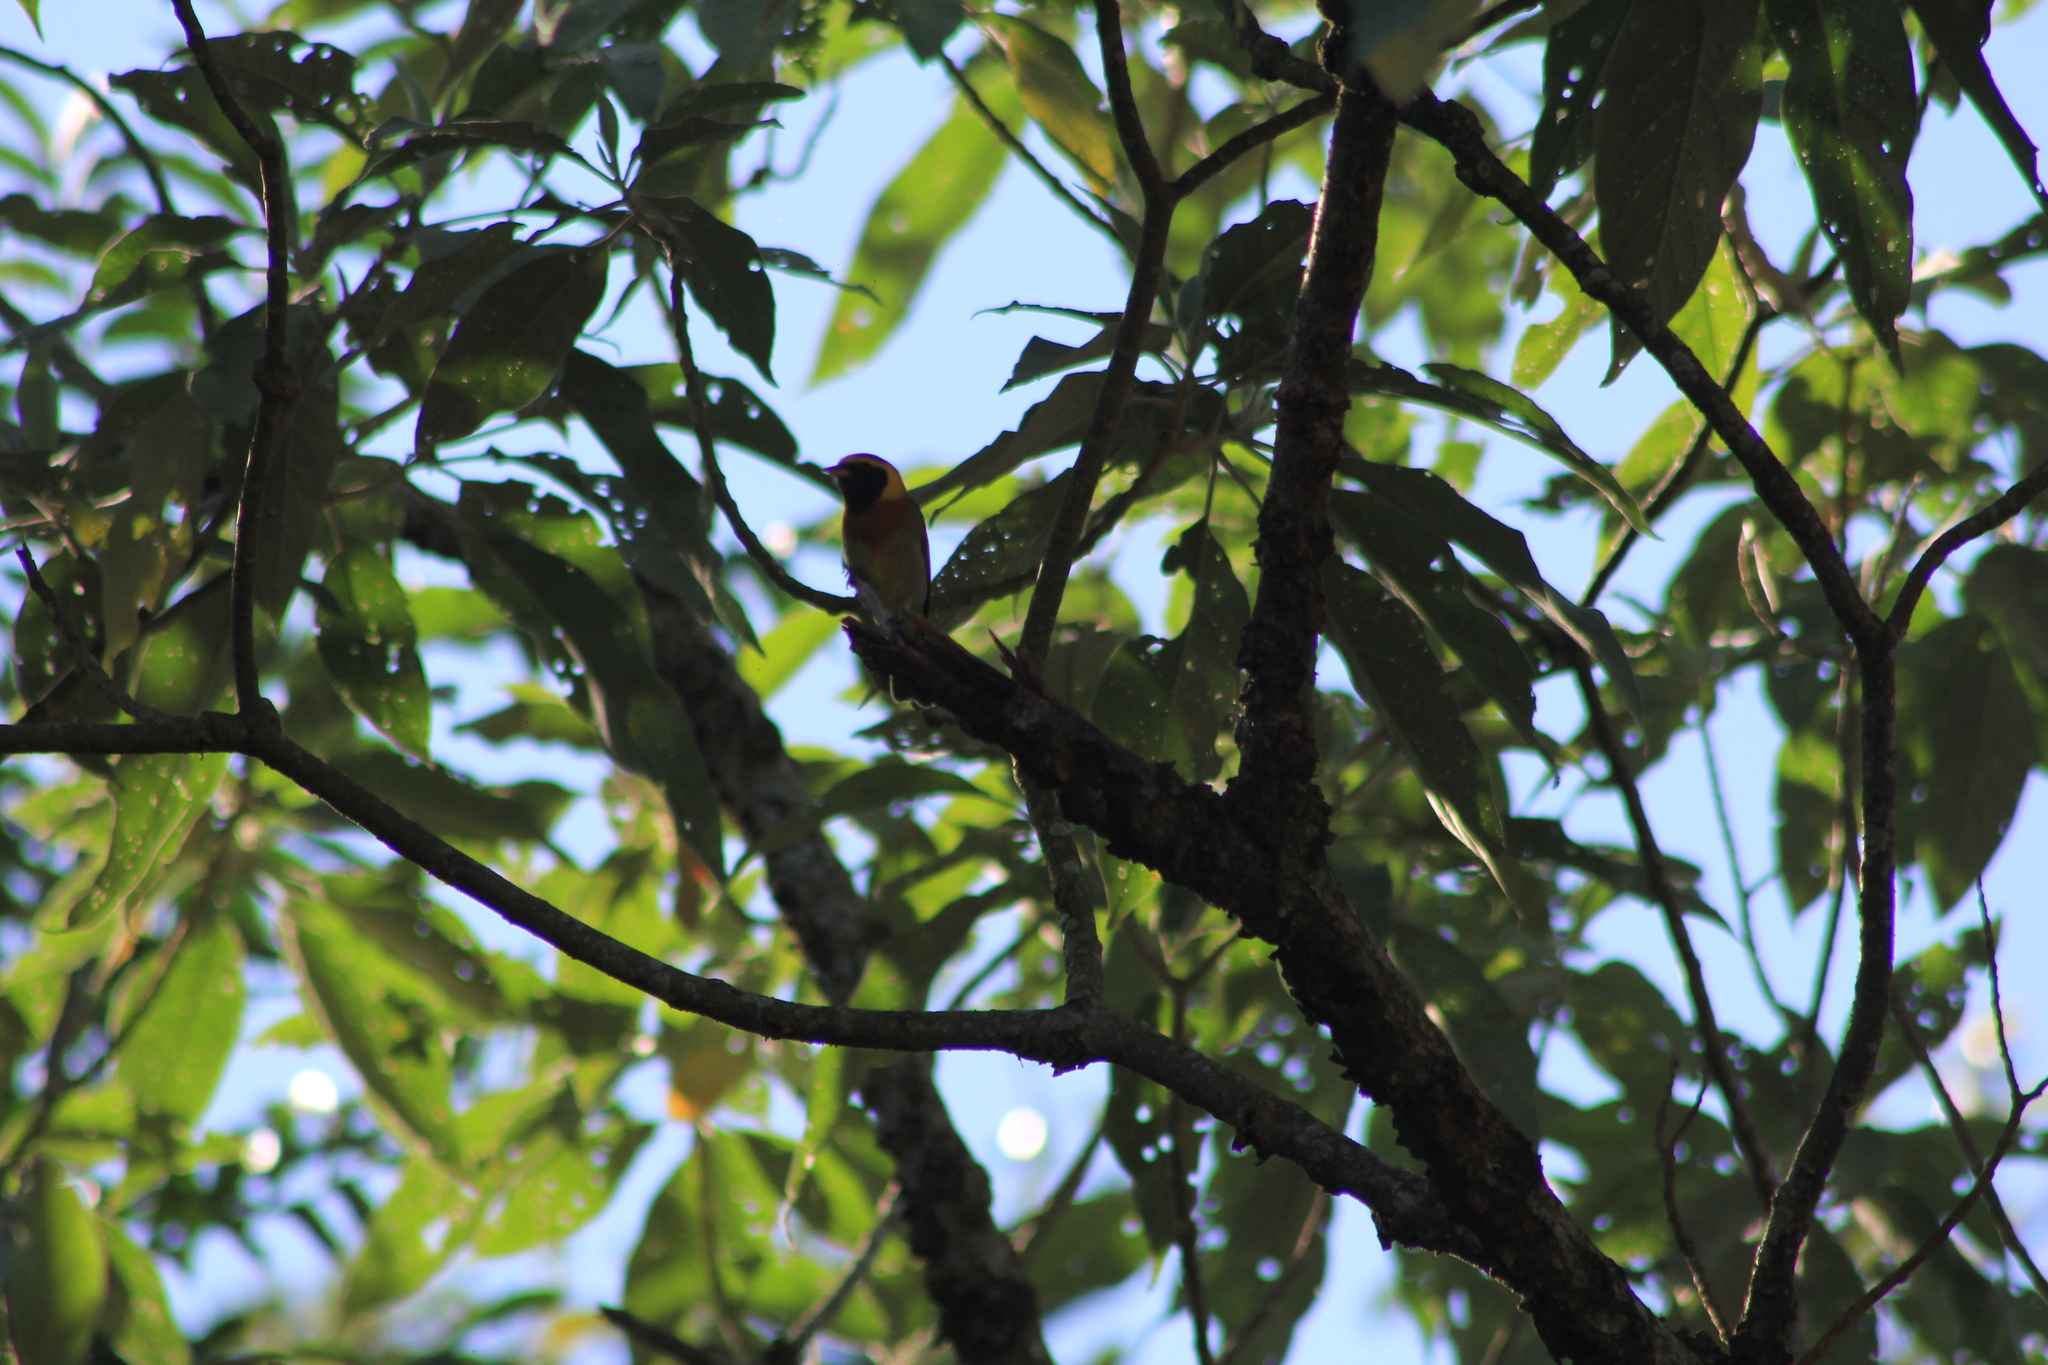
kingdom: Animalia
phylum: Chordata
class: Aves
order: Passeriformes
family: Thraupidae
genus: Hemithraupis
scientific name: Hemithraupis guira
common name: Guira tanager
